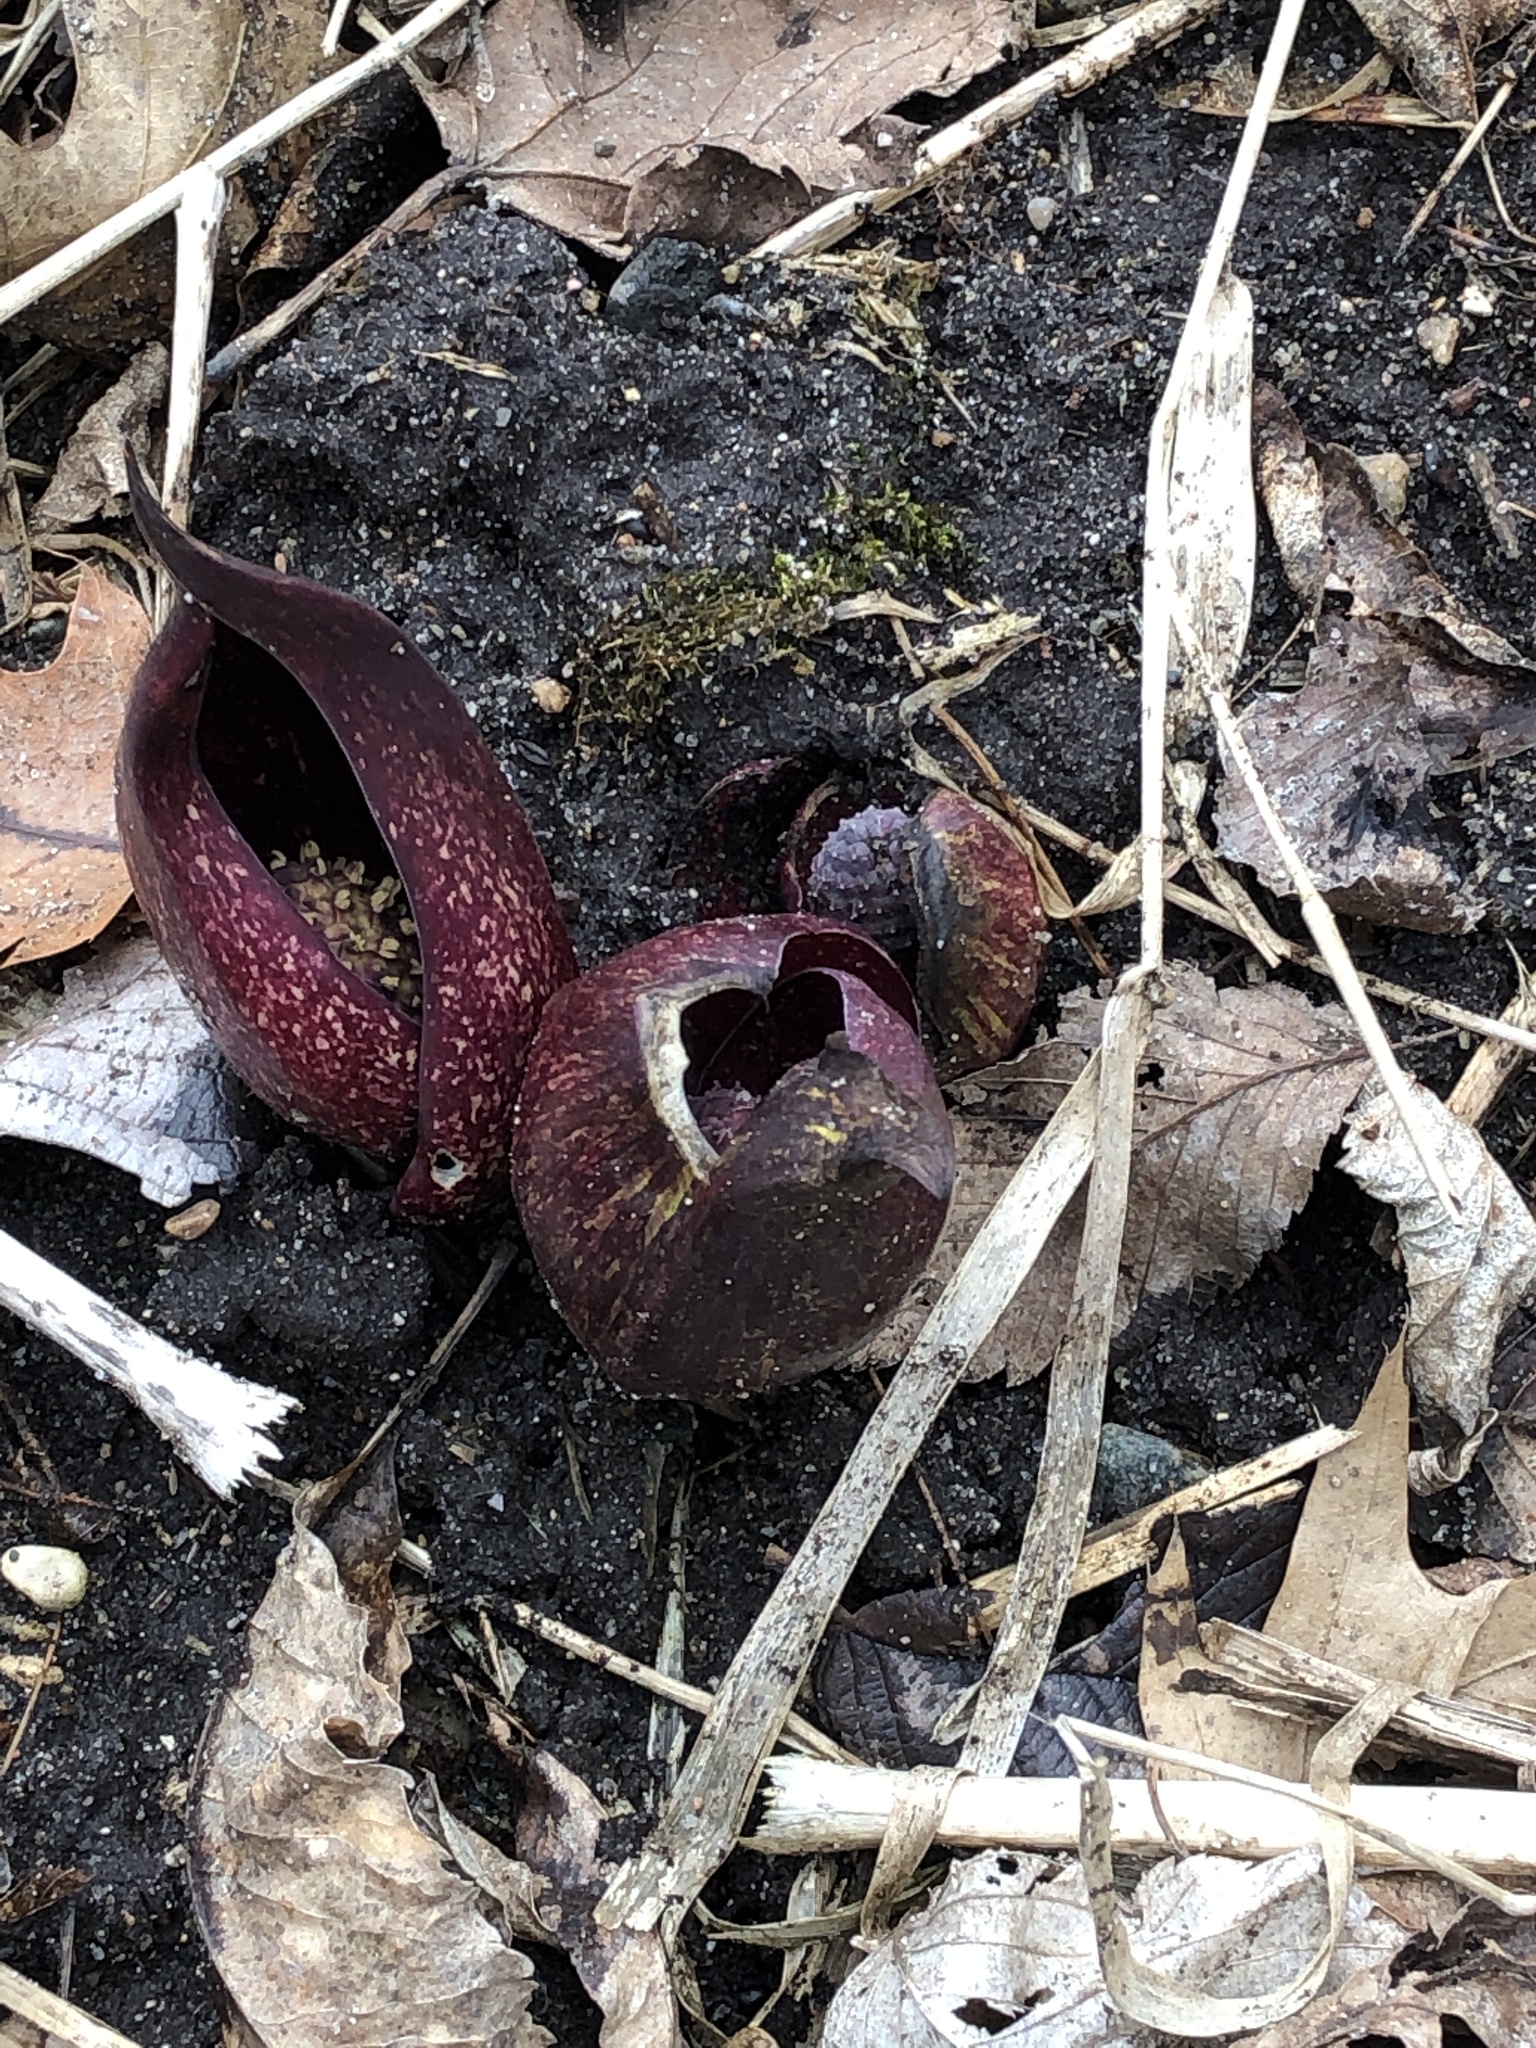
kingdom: Plantae
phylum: Tracheophyta
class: Liliopsida
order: Alismatales
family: Araceae
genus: Symplocarpus
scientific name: Symplocarpus foetidus
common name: Eastern skunk cabbage
